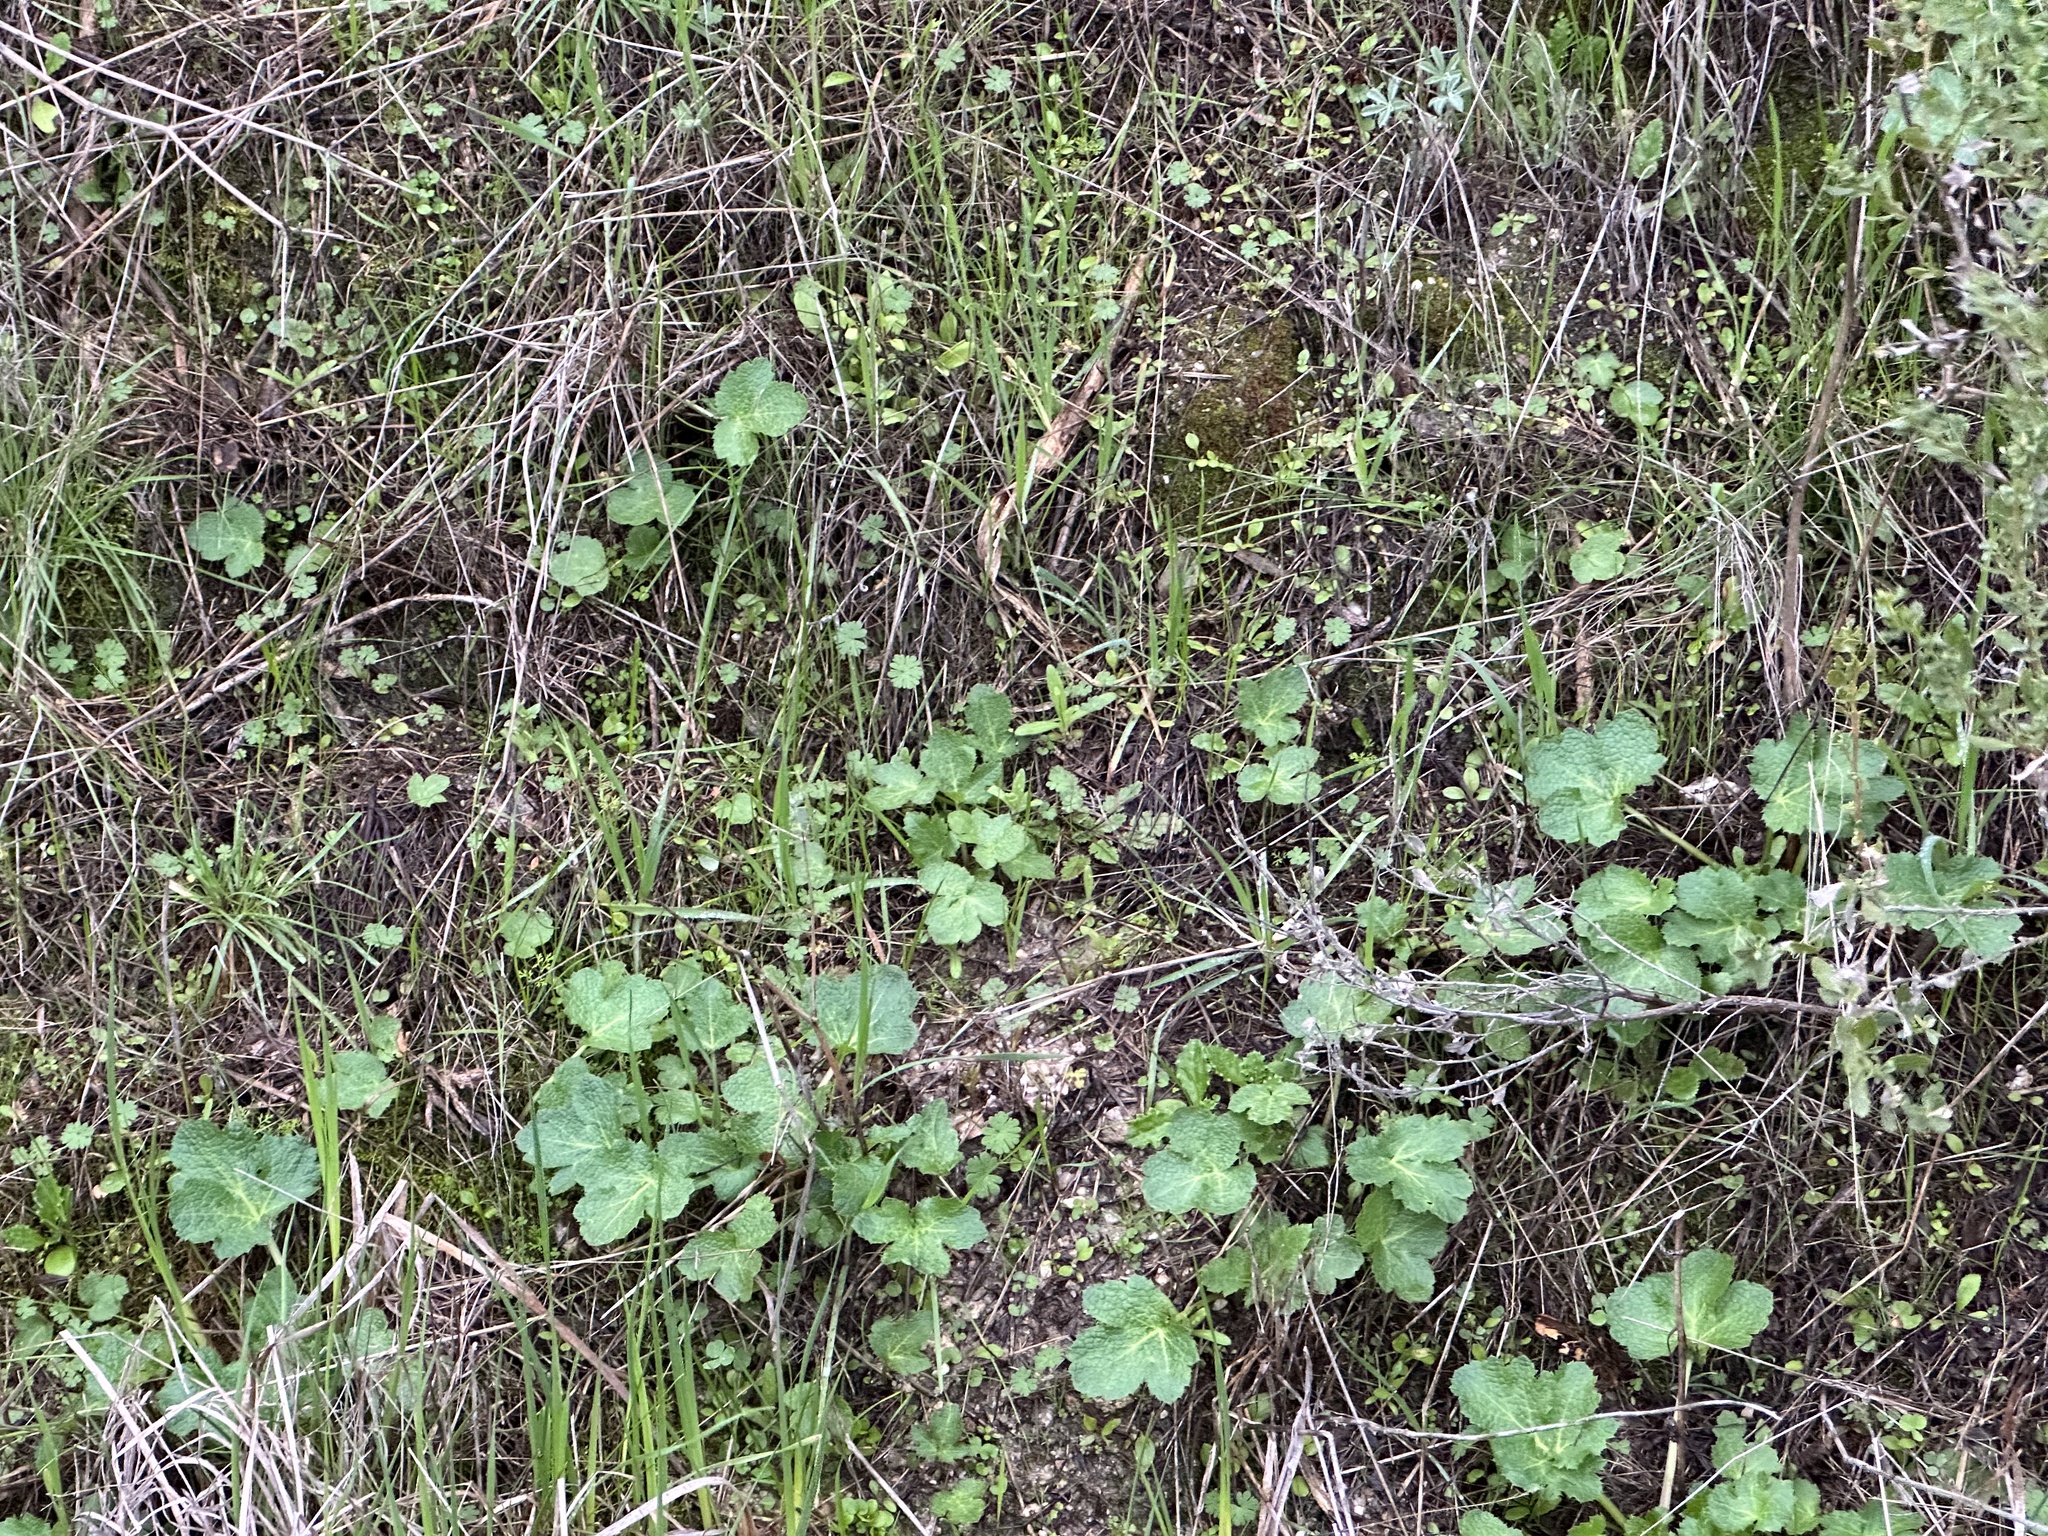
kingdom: Plantae
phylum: Tracheophyta
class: Magnoliopsida
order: Apiales
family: Apiaceae
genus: Sanicula
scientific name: Sanicula crassicaulis
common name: Western snakeroot
